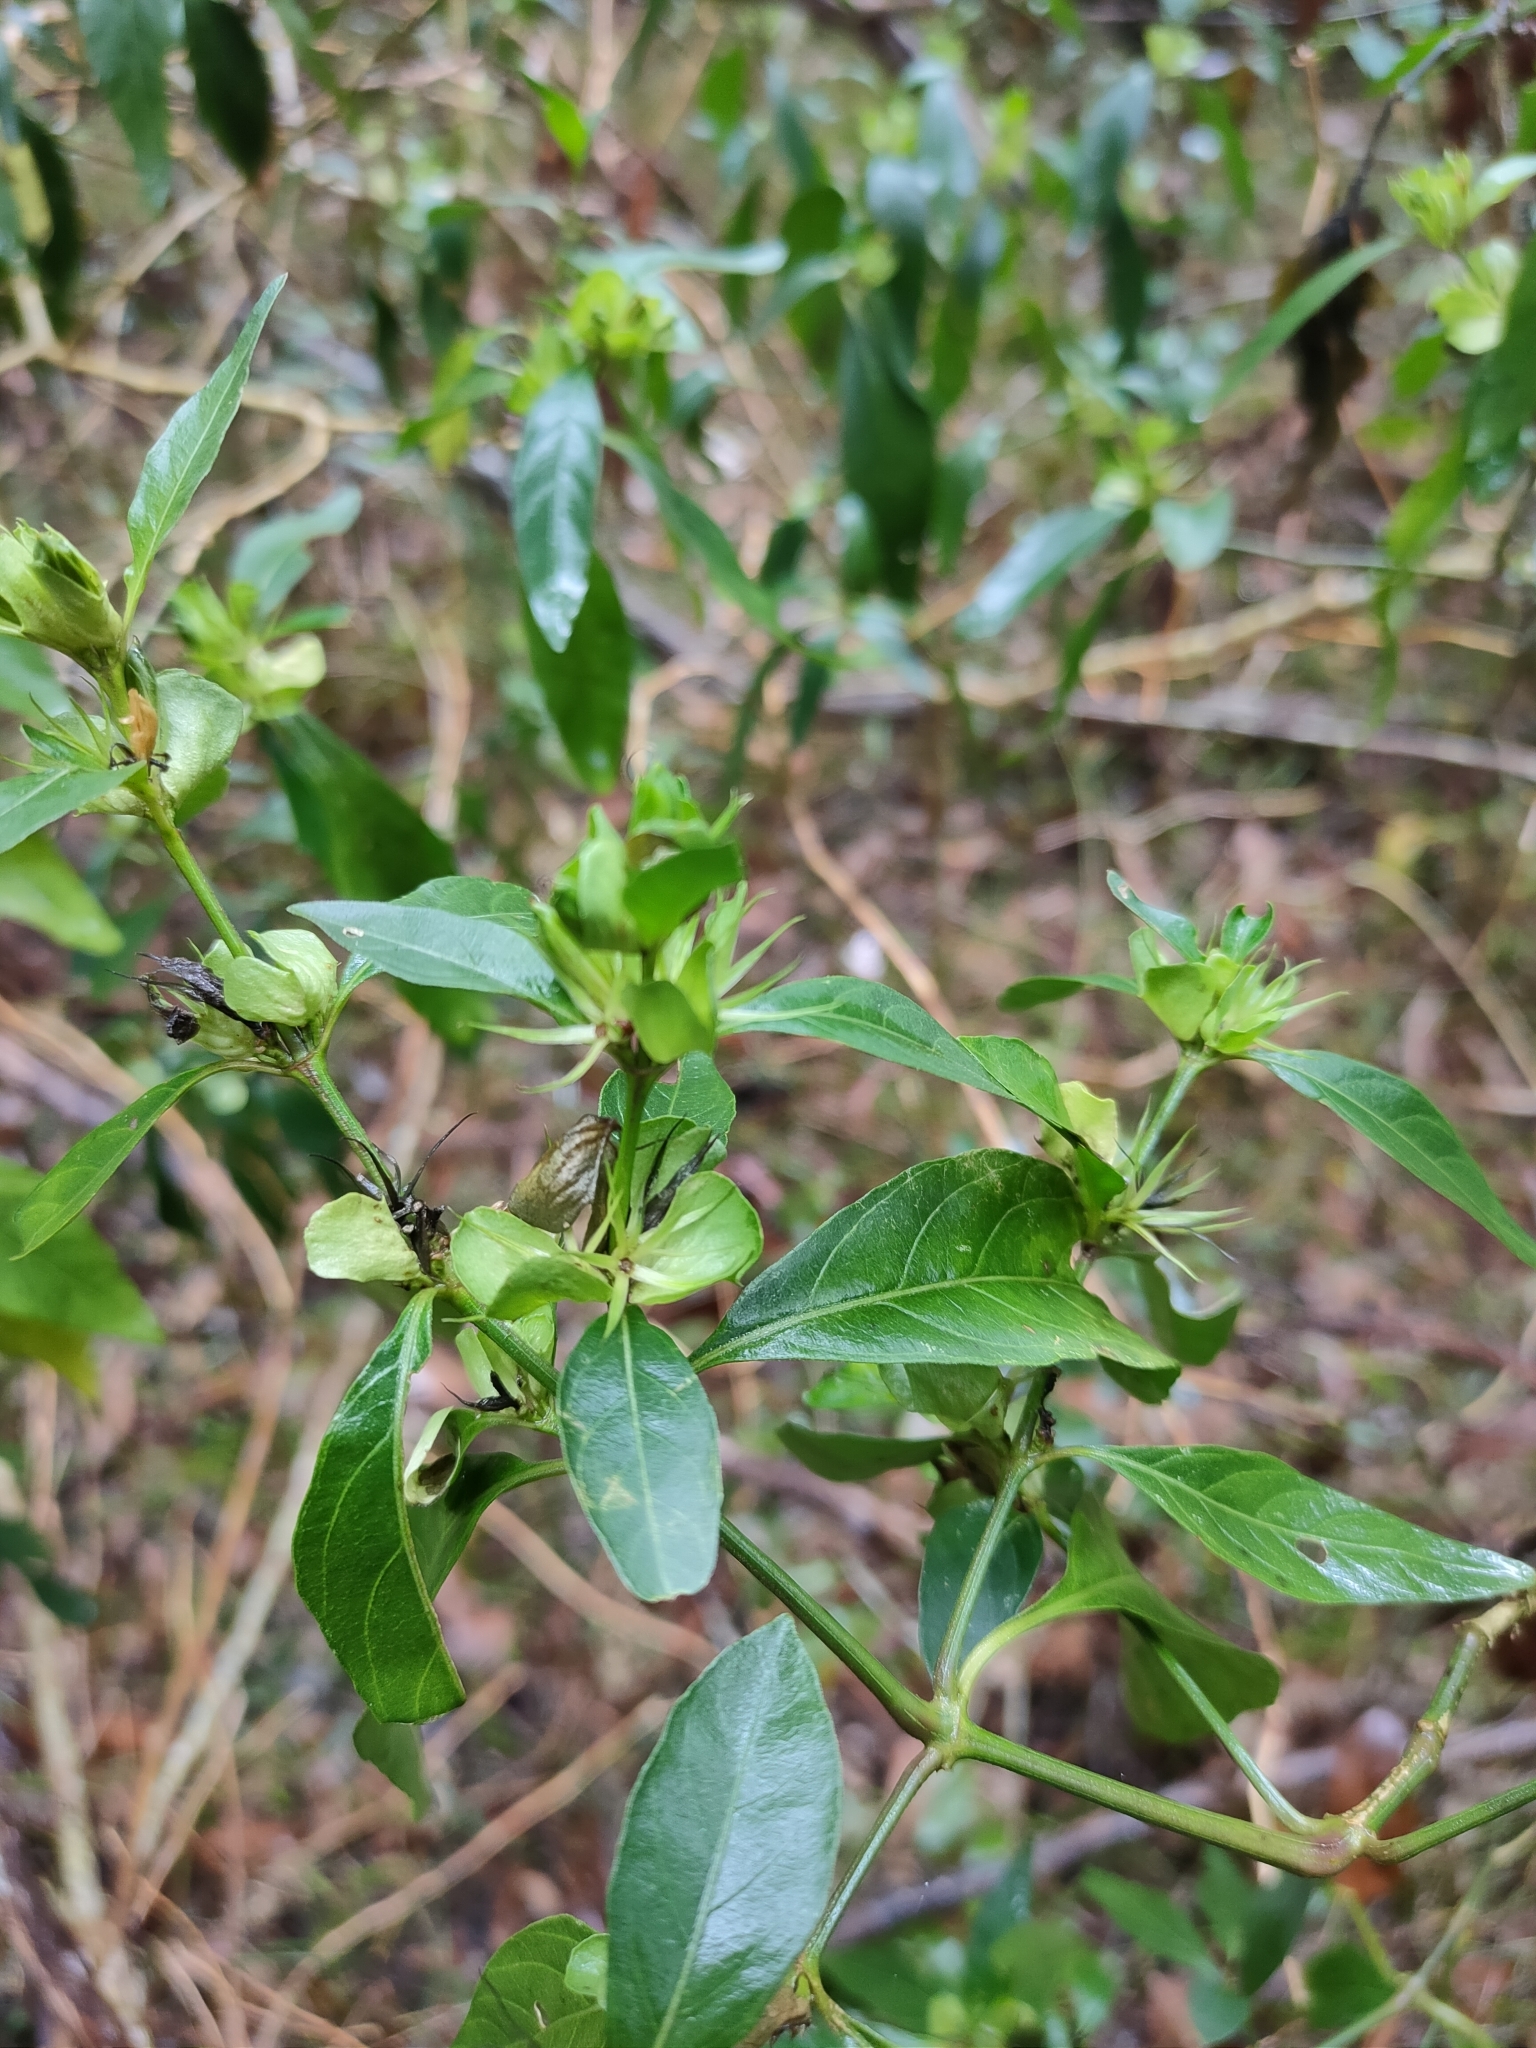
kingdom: Plantae
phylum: Tracheophyta
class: Magnoliopsida
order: Lamiales
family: Acanthaceae
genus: Justicia
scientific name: Justicia hygrophiloides
